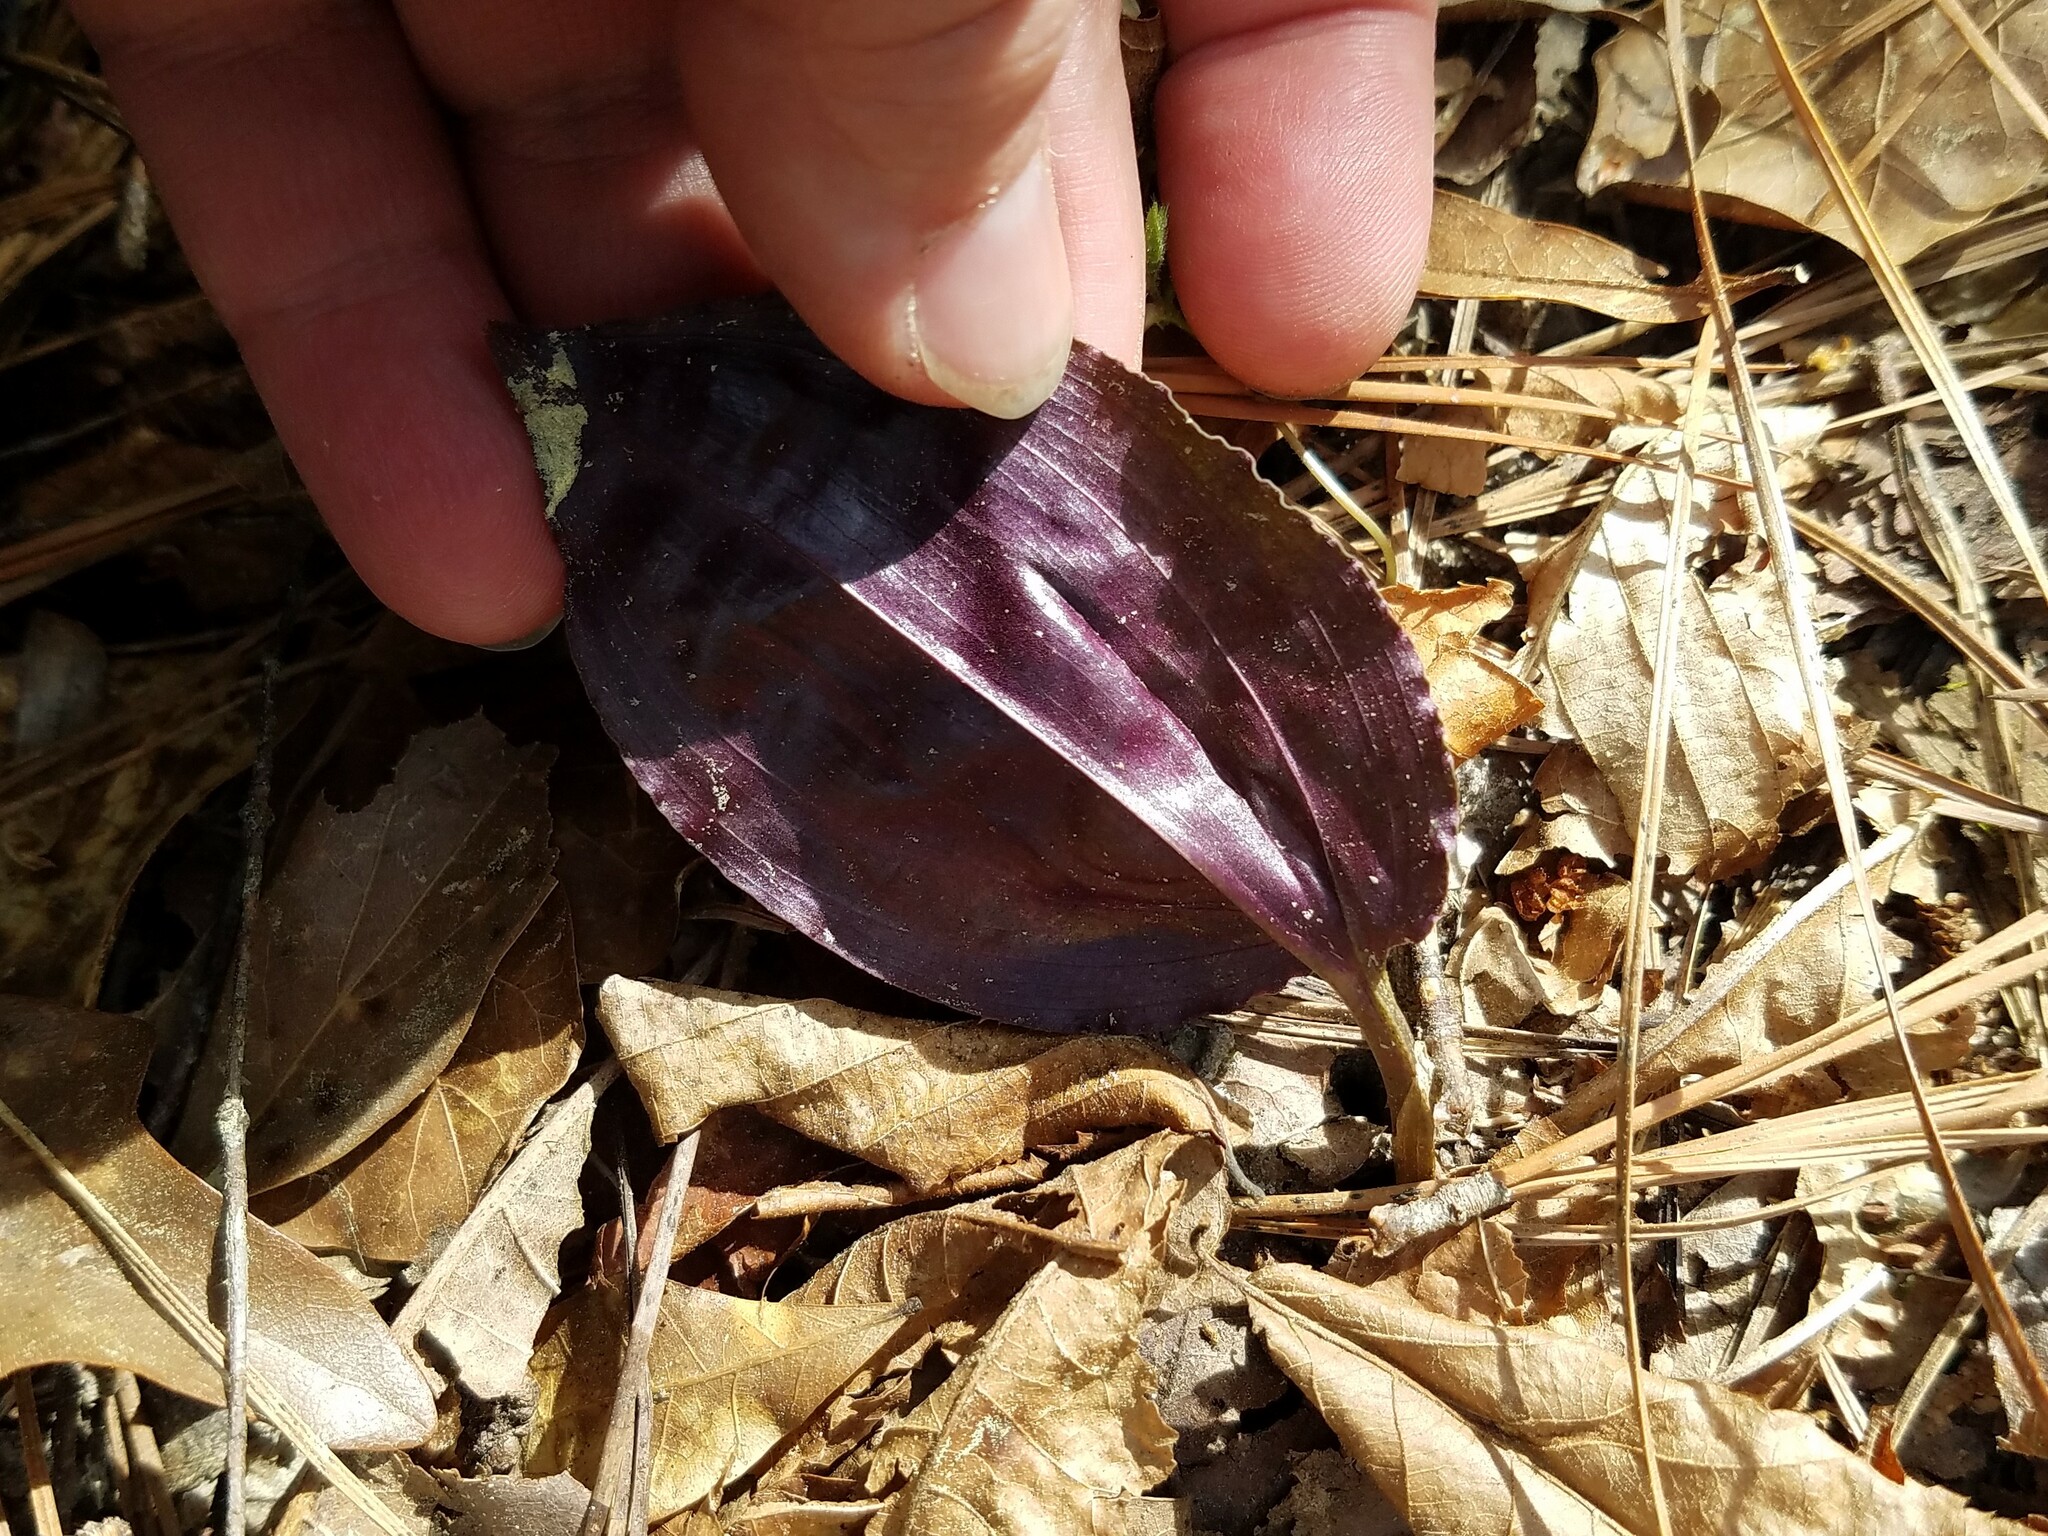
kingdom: Plantae
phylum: Tracheophyta
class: Liliopsida
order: Asparagales
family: Orchidaceae
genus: Tipularia
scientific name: Tipularia discolor
